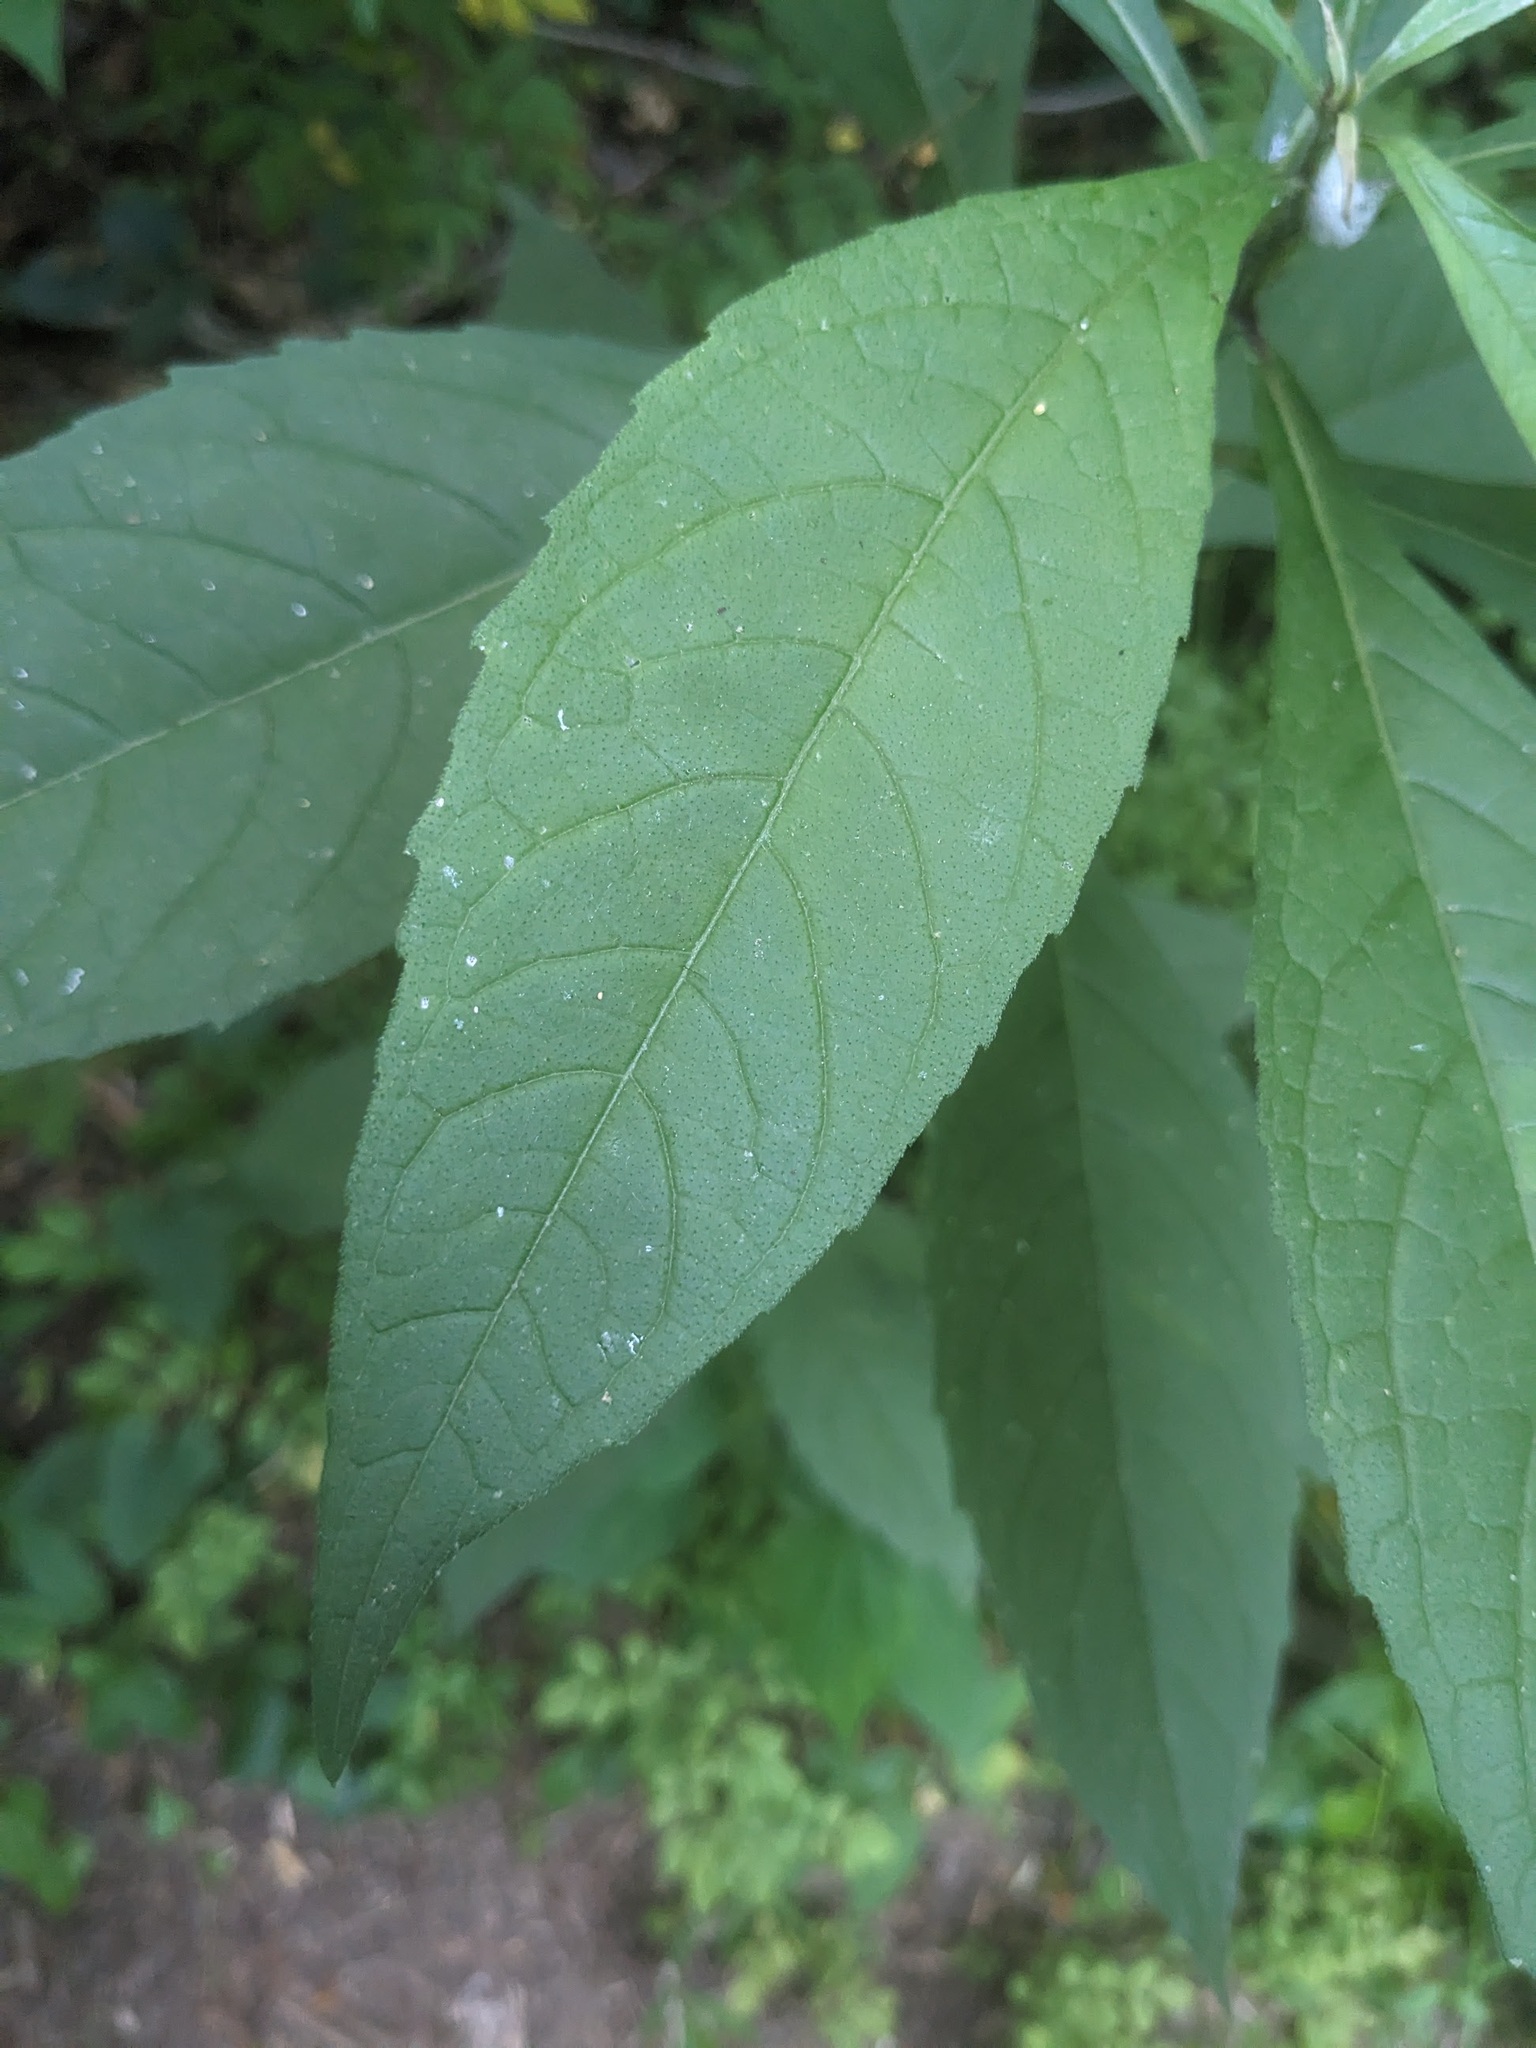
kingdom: Plantae
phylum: Tracheophyta
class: Magnoliopsida
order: Asterales
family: Asteraceae
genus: Verbesina
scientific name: Verbesina alternifolia
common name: Wingstem
